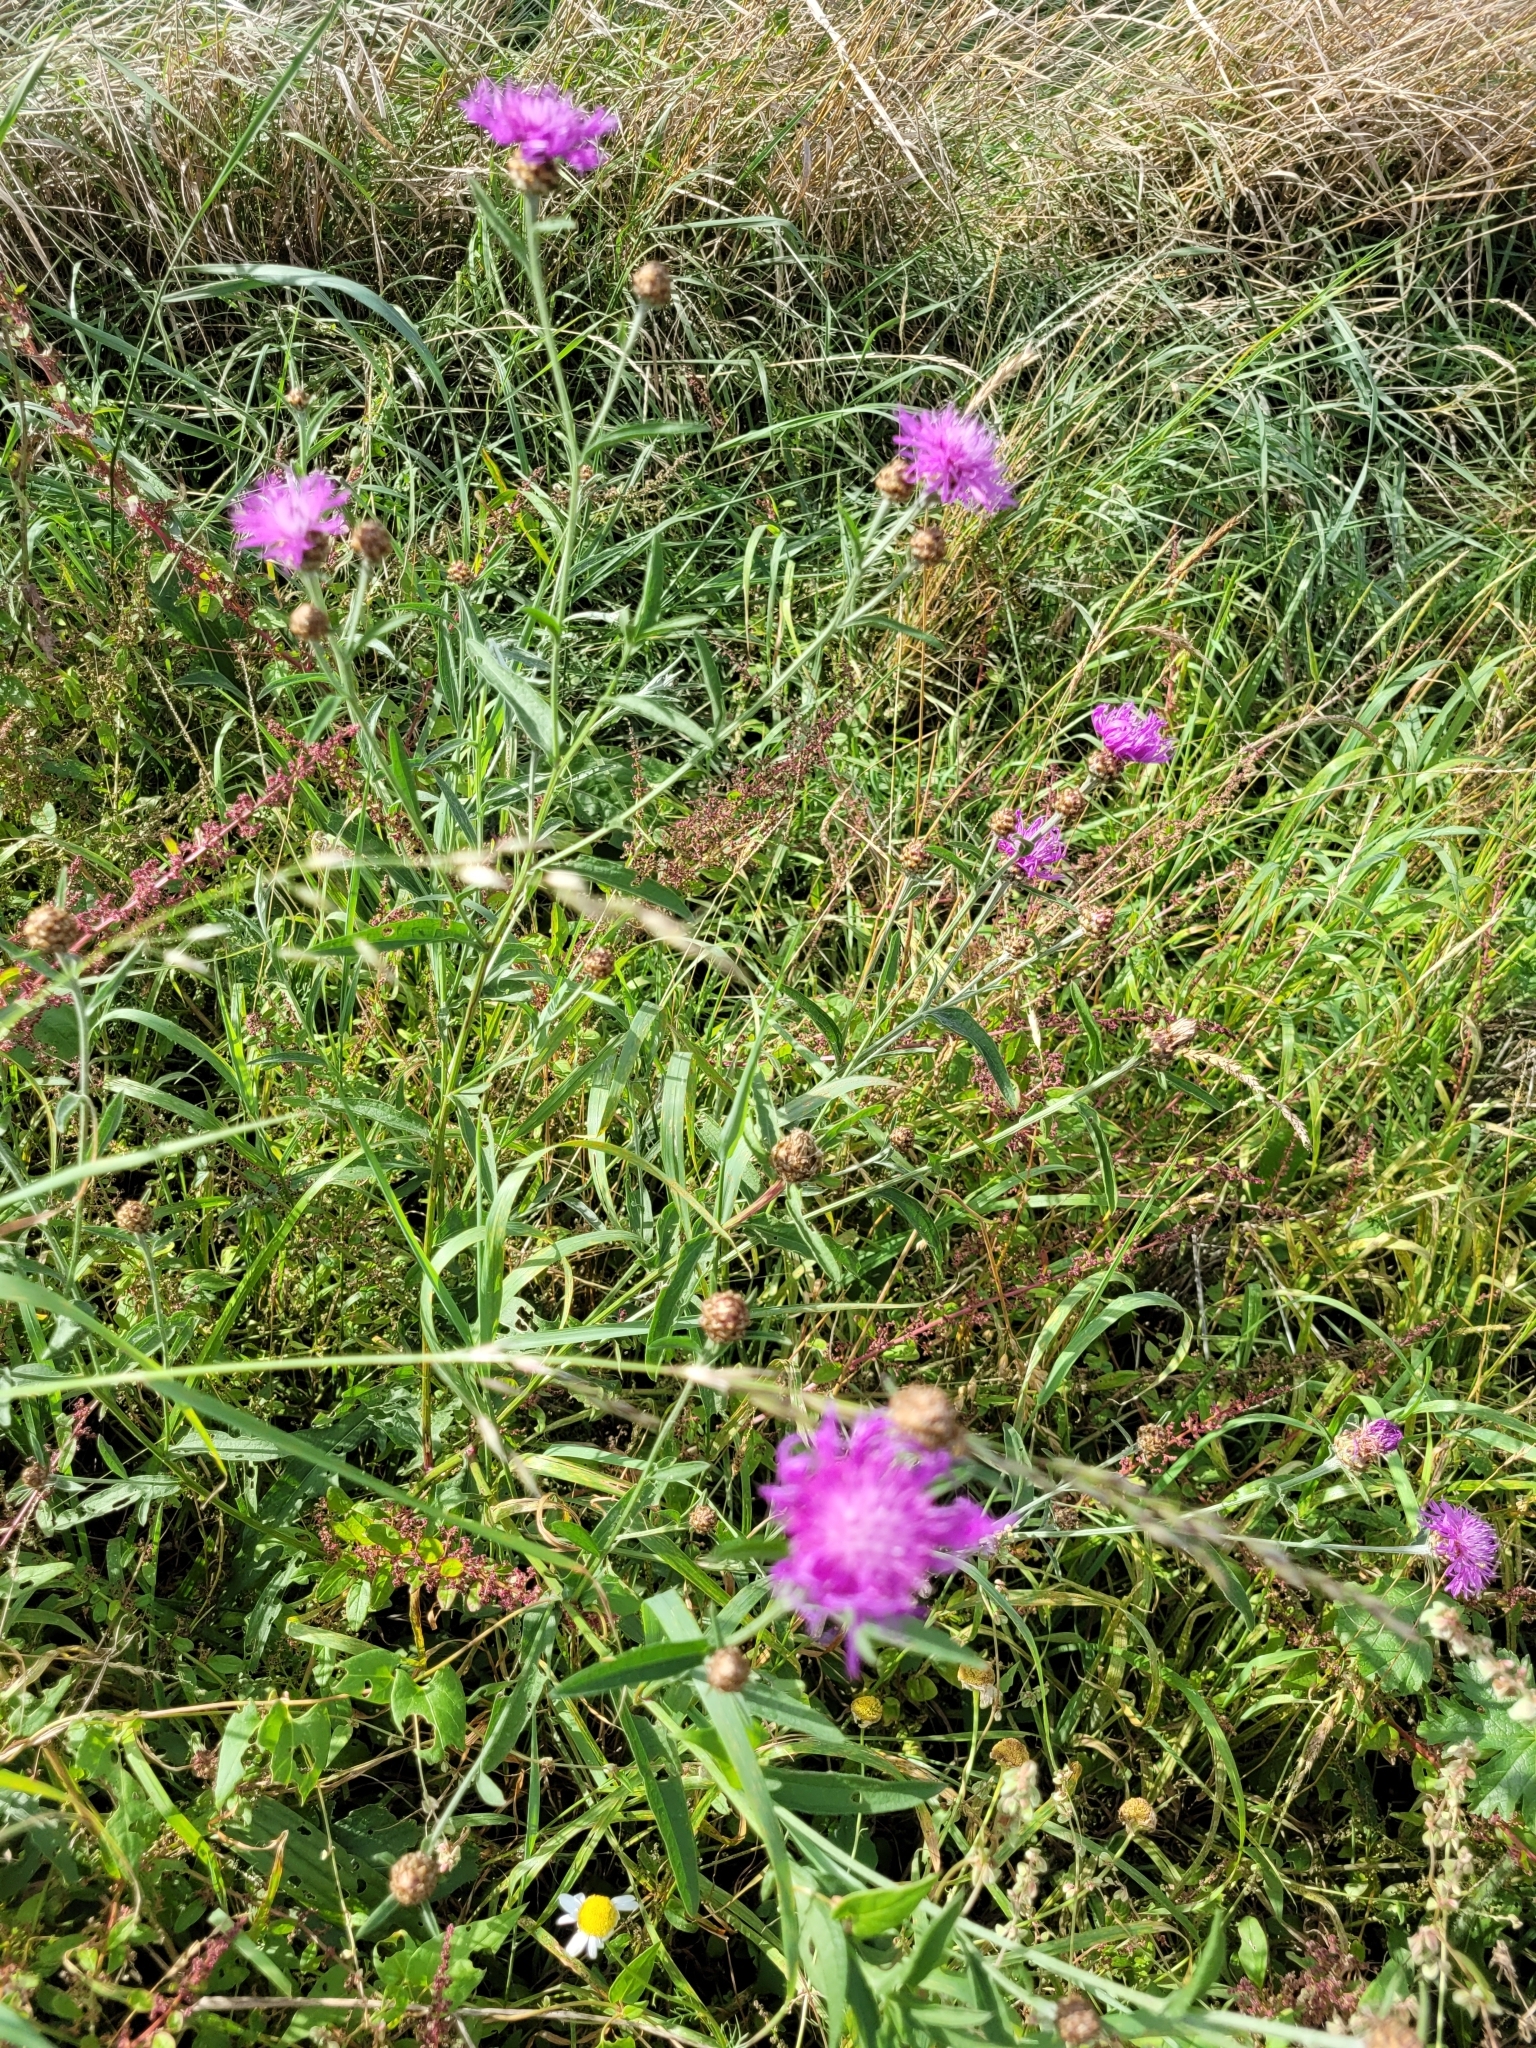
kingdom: Plantae
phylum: Tracheophyta
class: Magnoliopsida
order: Asterales
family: Asteraceae
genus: Centaurea
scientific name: Centaurea jacea
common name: Brown knapweed
